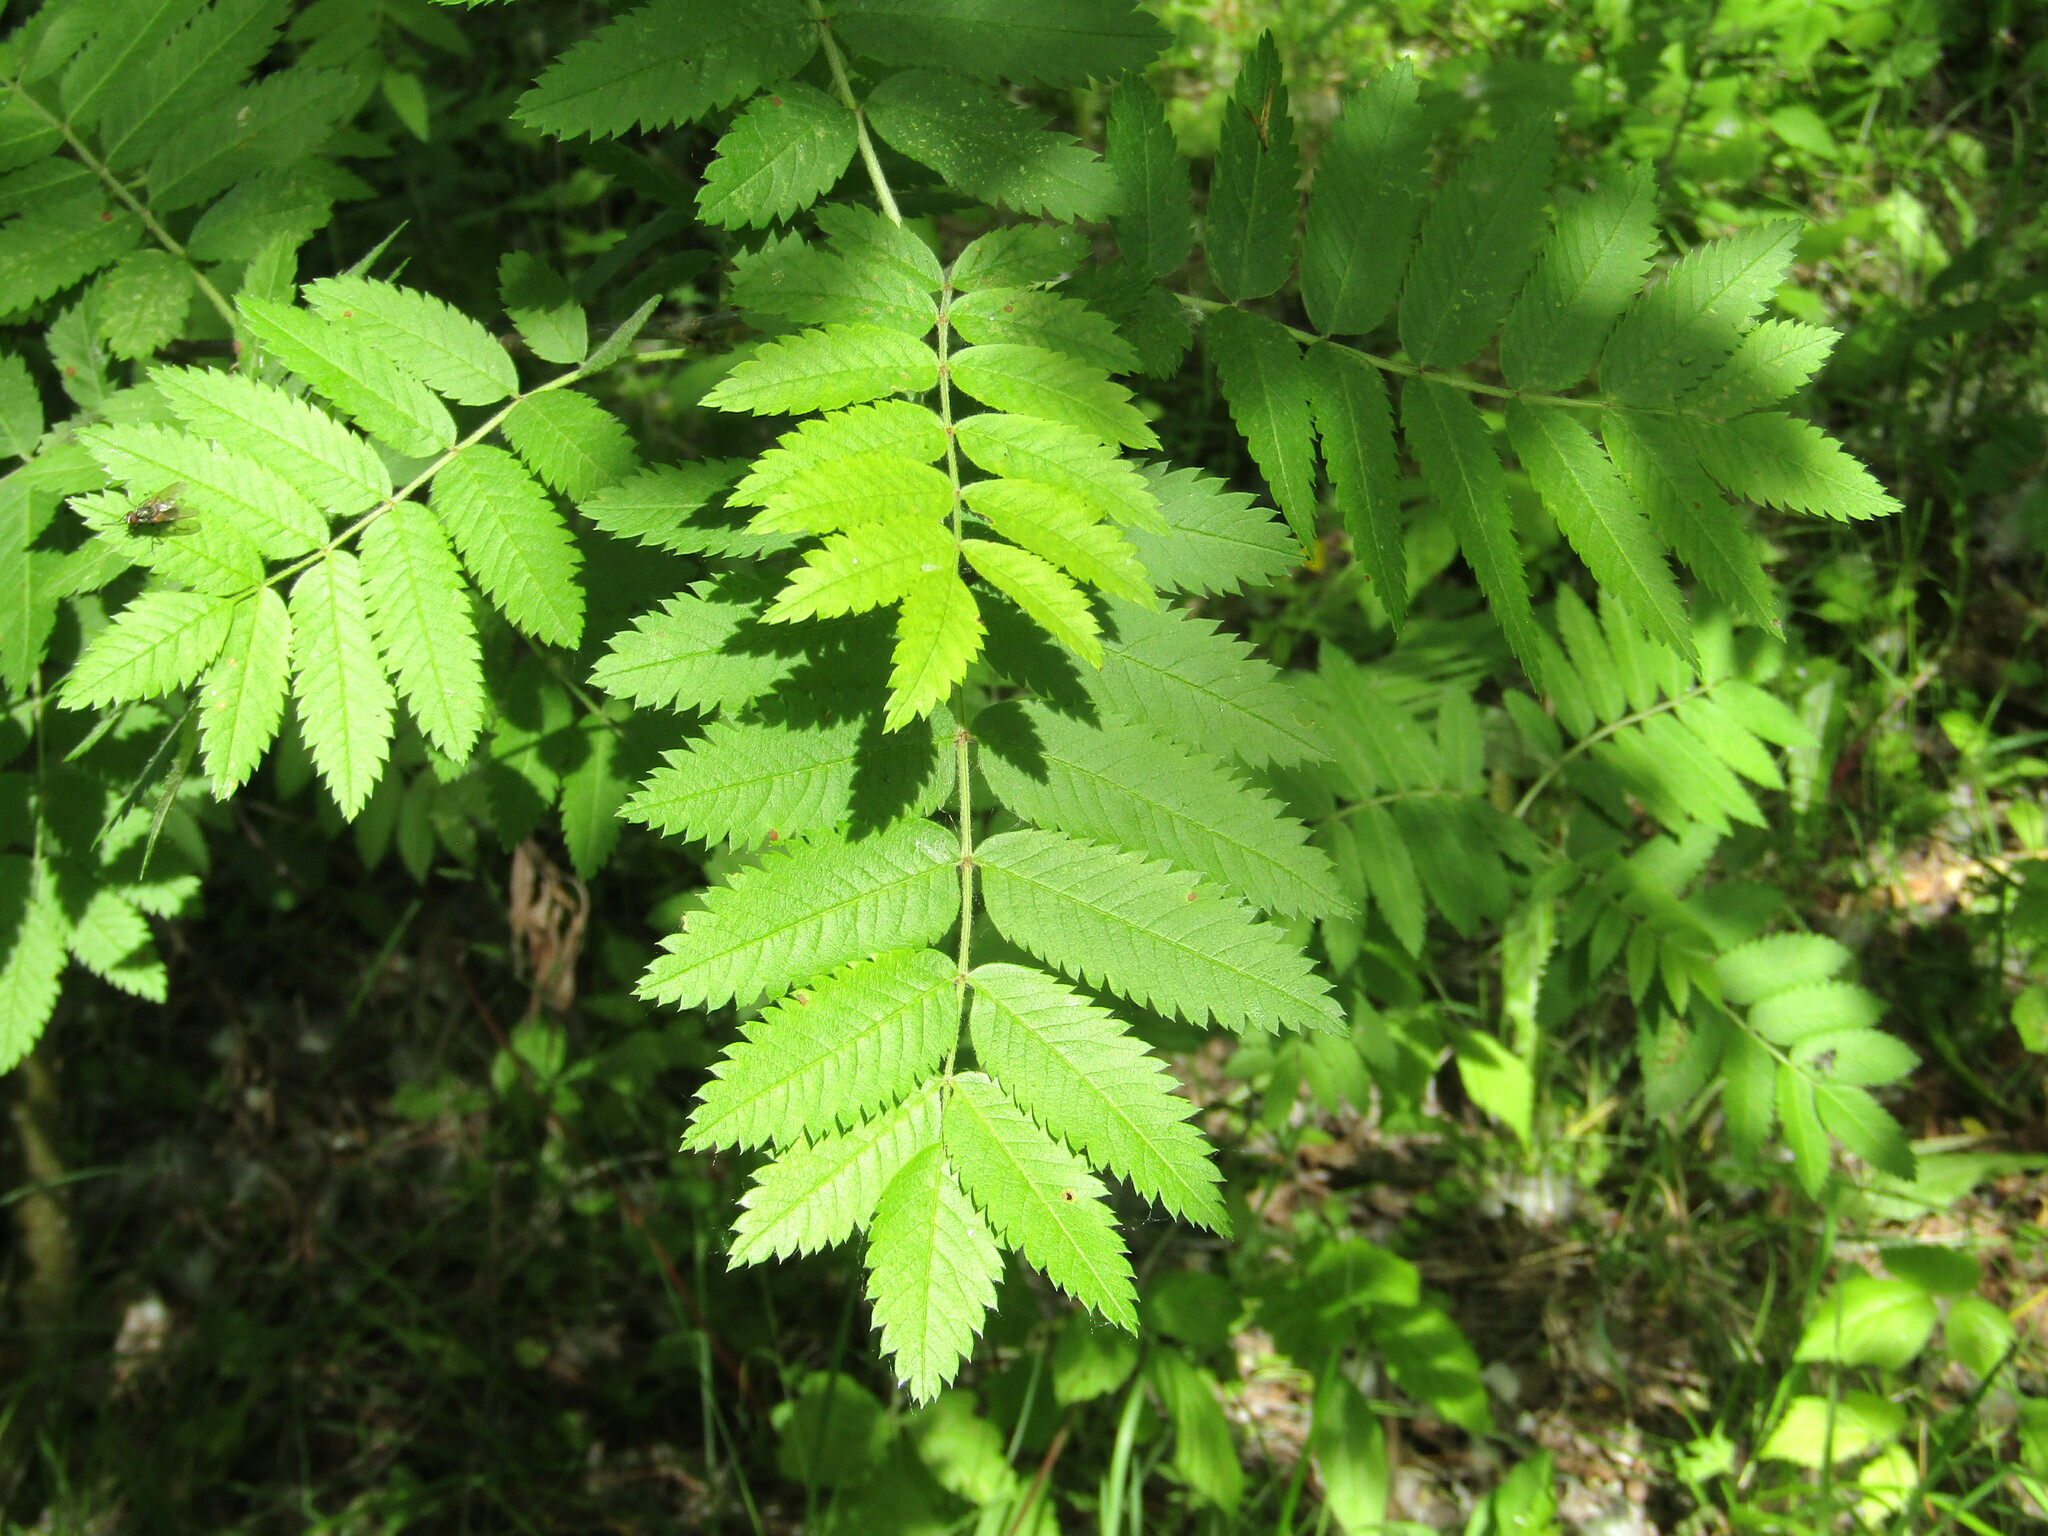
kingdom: Plantae
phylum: Tracheophyta
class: Magnoliopsida
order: Rosales
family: Rosaceae
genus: Sorbus
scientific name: Sorbus aucuparia
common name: Rowan
